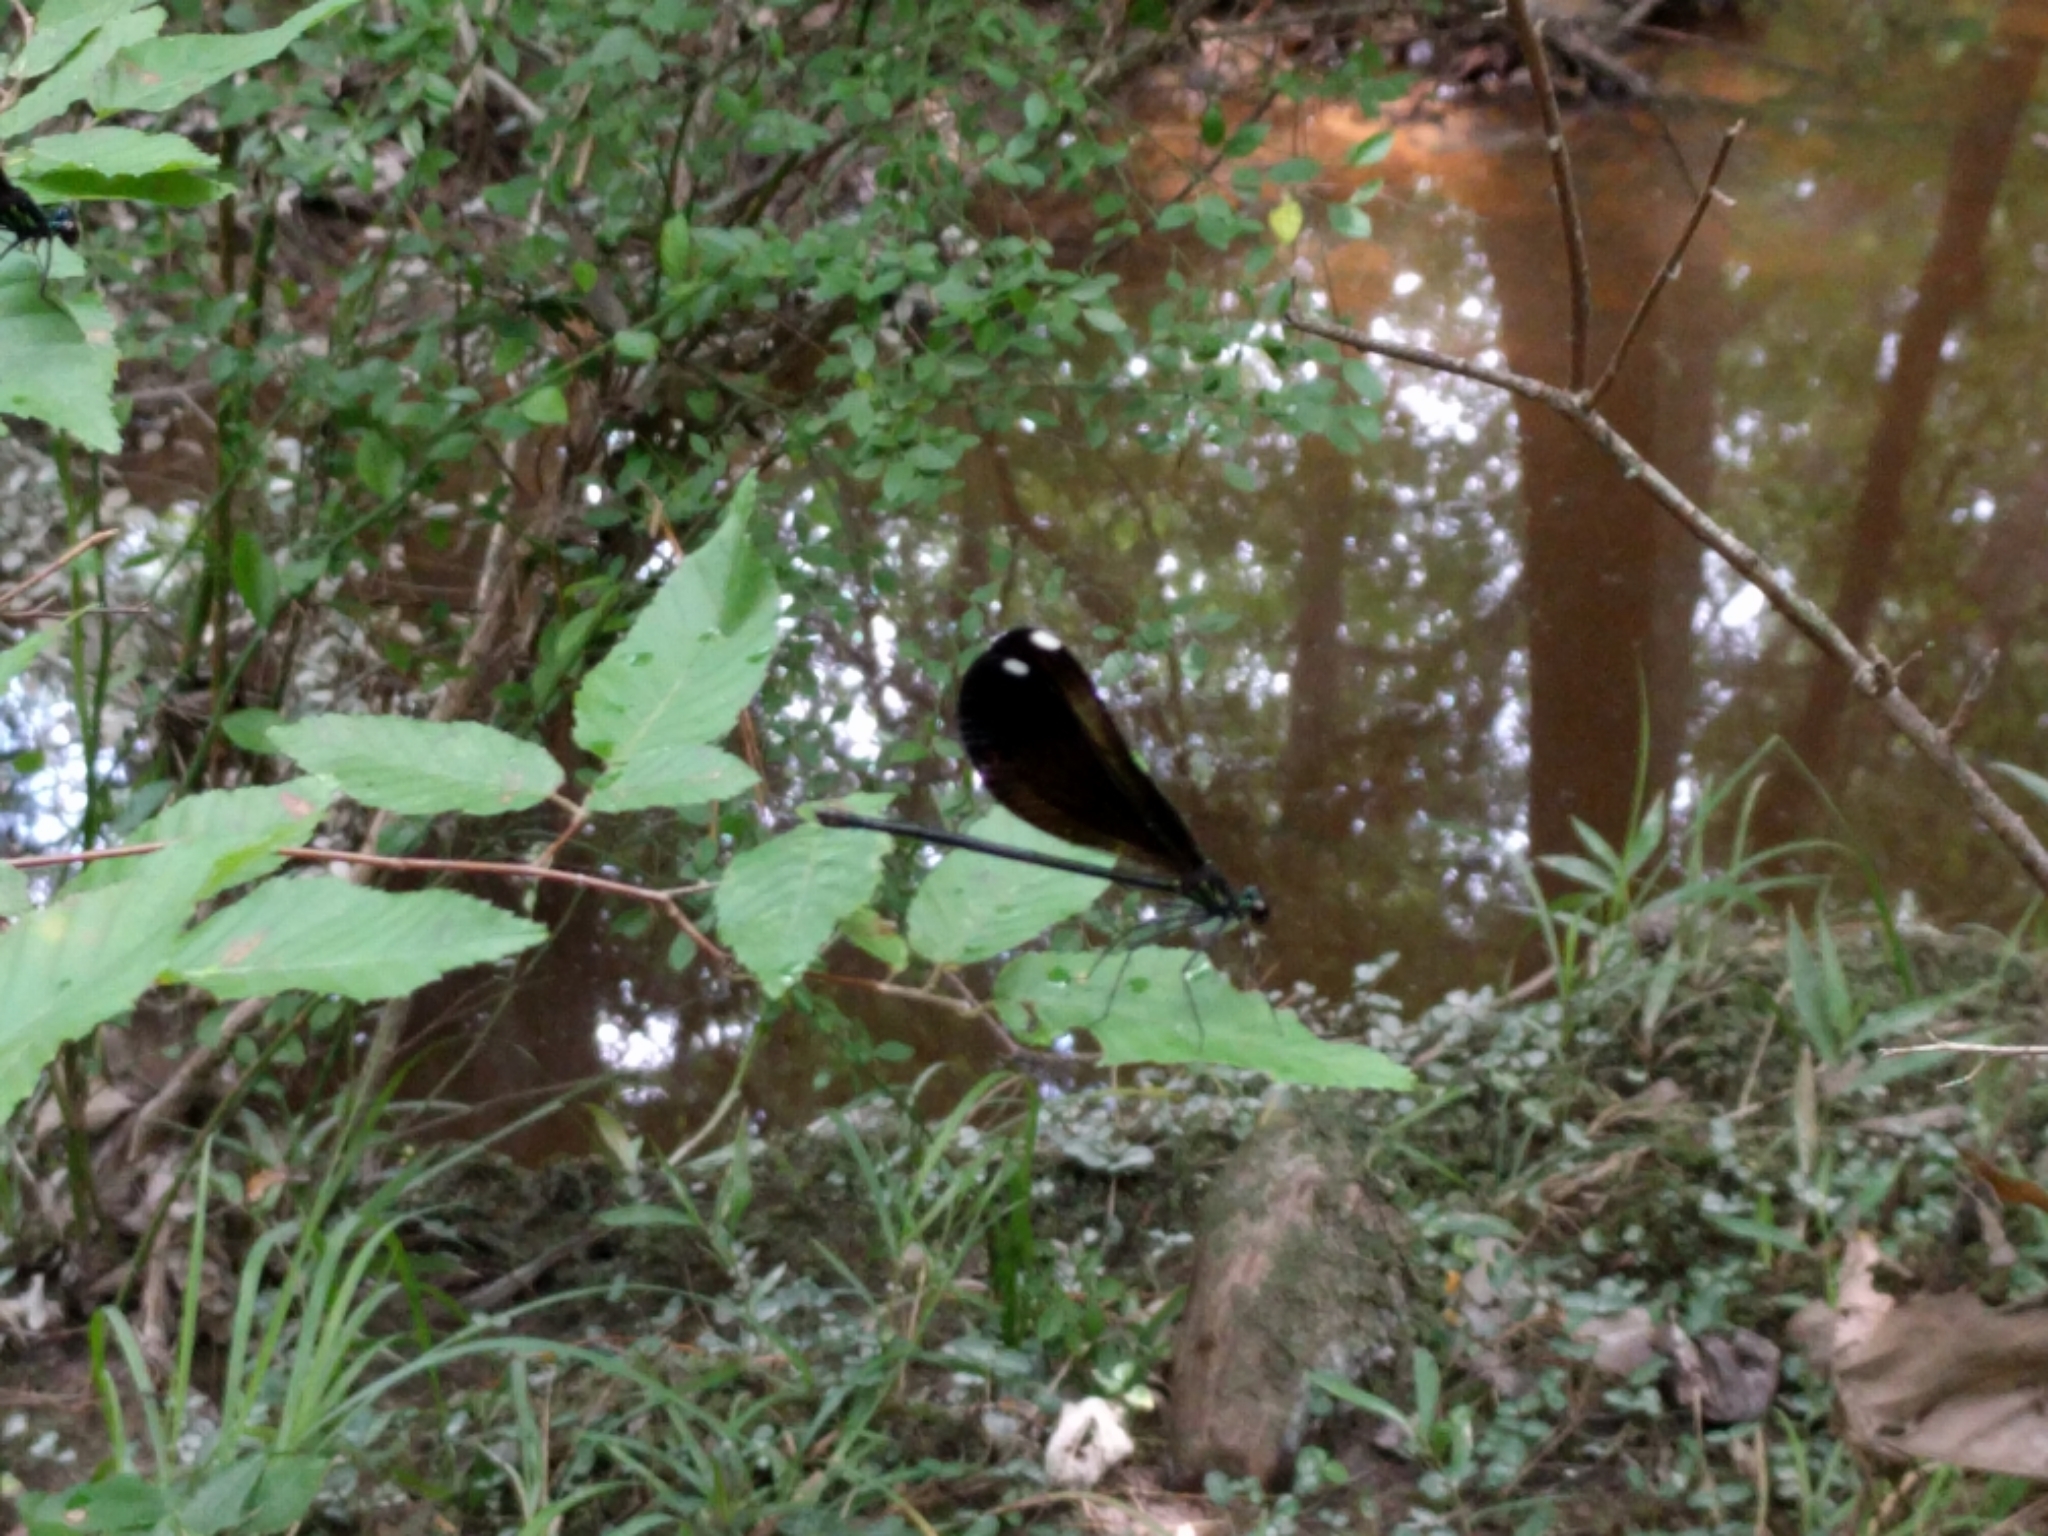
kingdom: Animalia
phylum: Arthropoda
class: Insecta
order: Odonata
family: Calopterygidae
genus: Calopteryx
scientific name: Calopteryx maculata
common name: Ebony jewelwing
